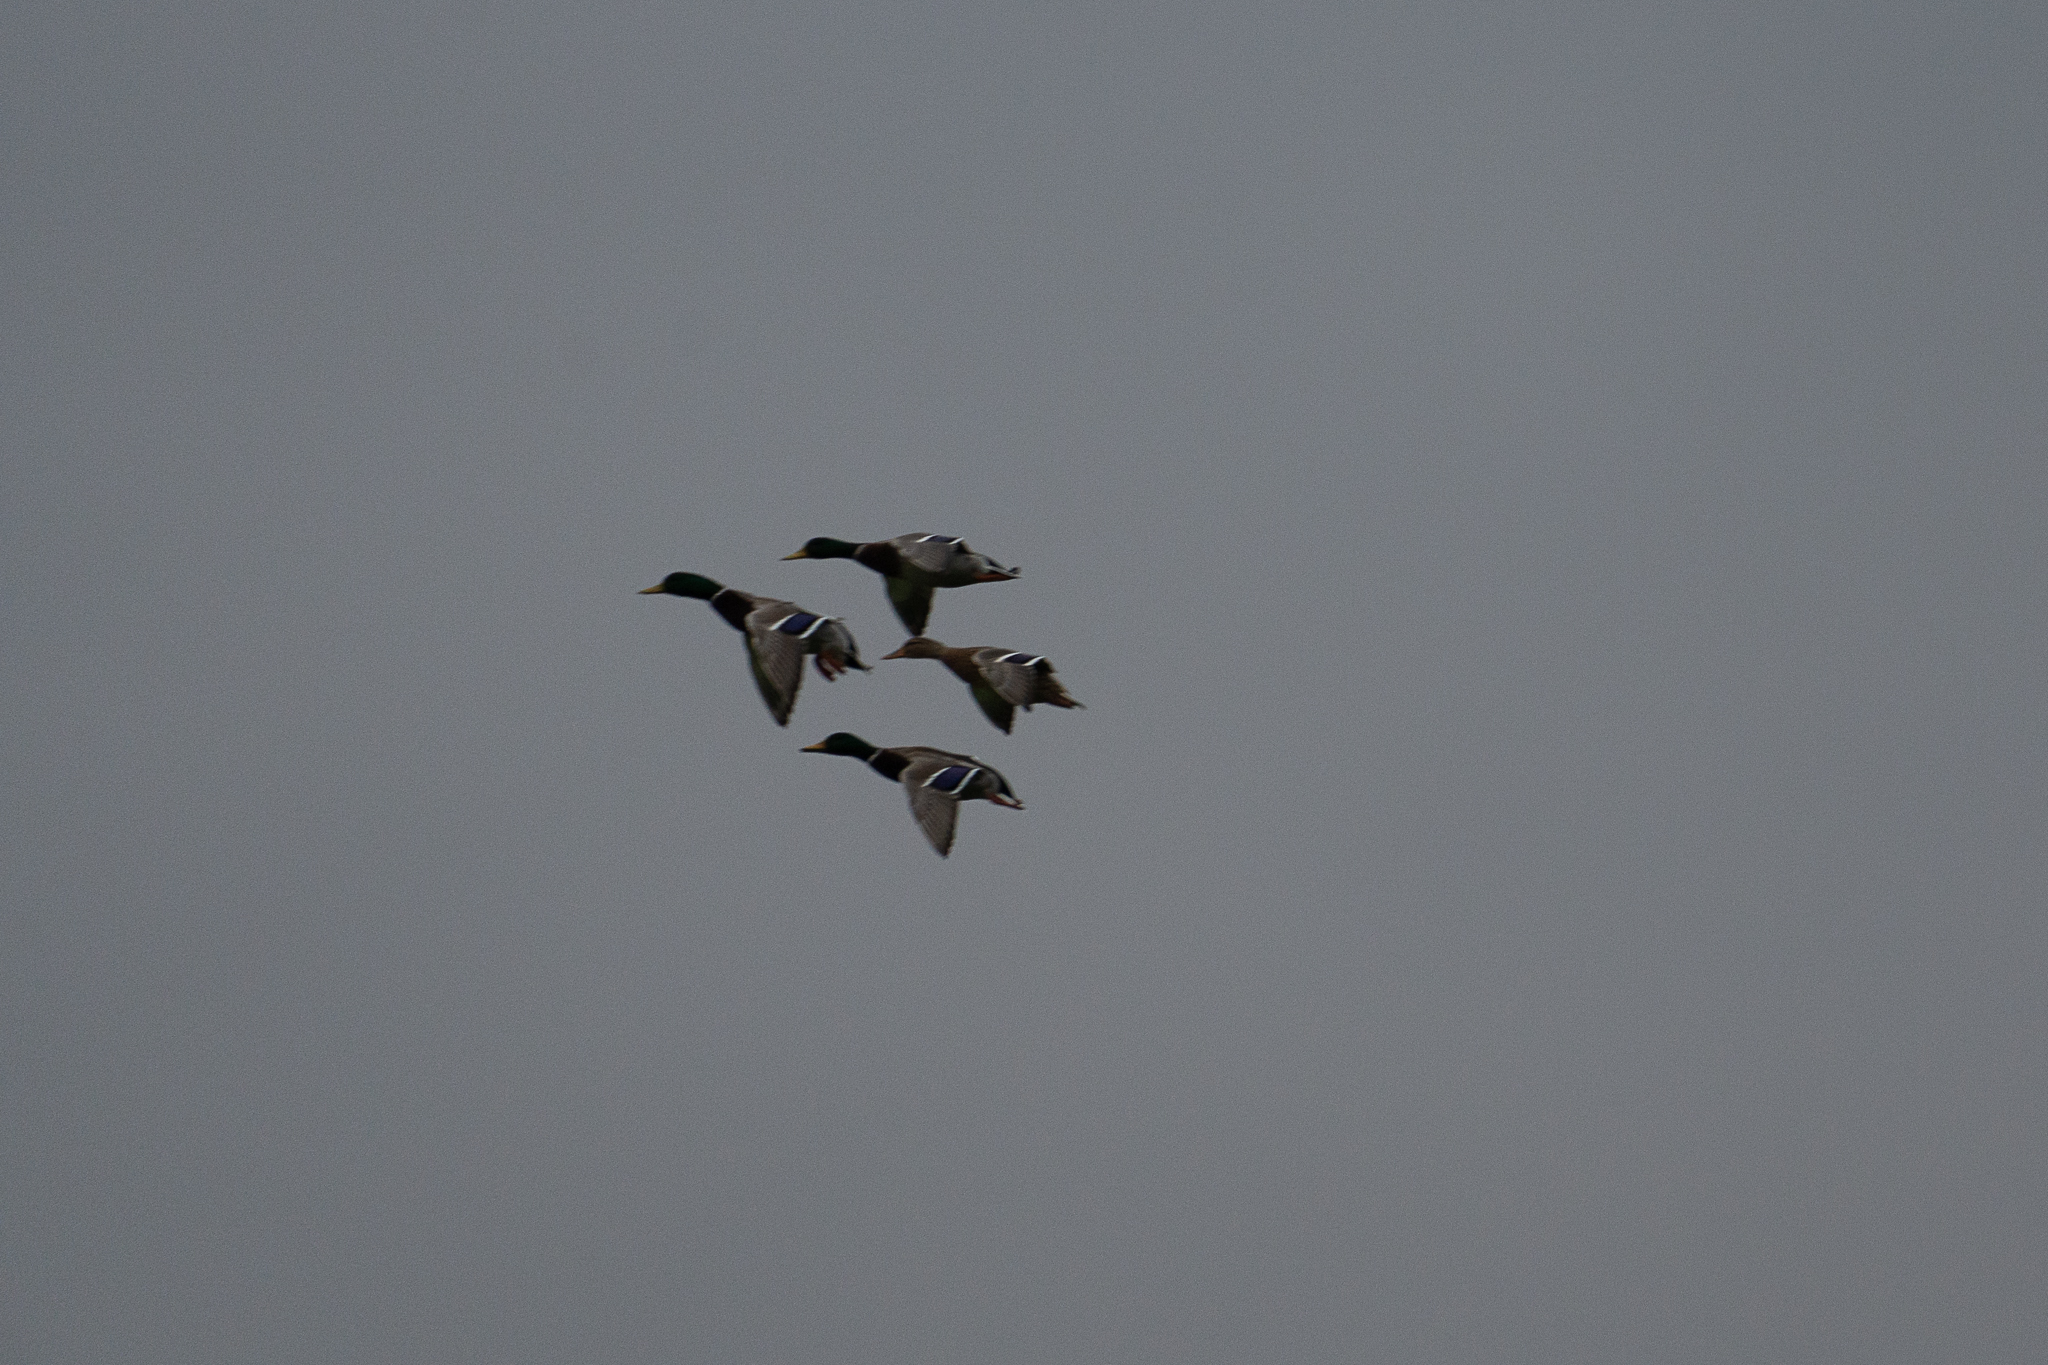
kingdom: Animalia
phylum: Chordata
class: Aves
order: Anseriformes
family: Anatidae
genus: Anas
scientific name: Anas platyrhynchos
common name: Mallard
